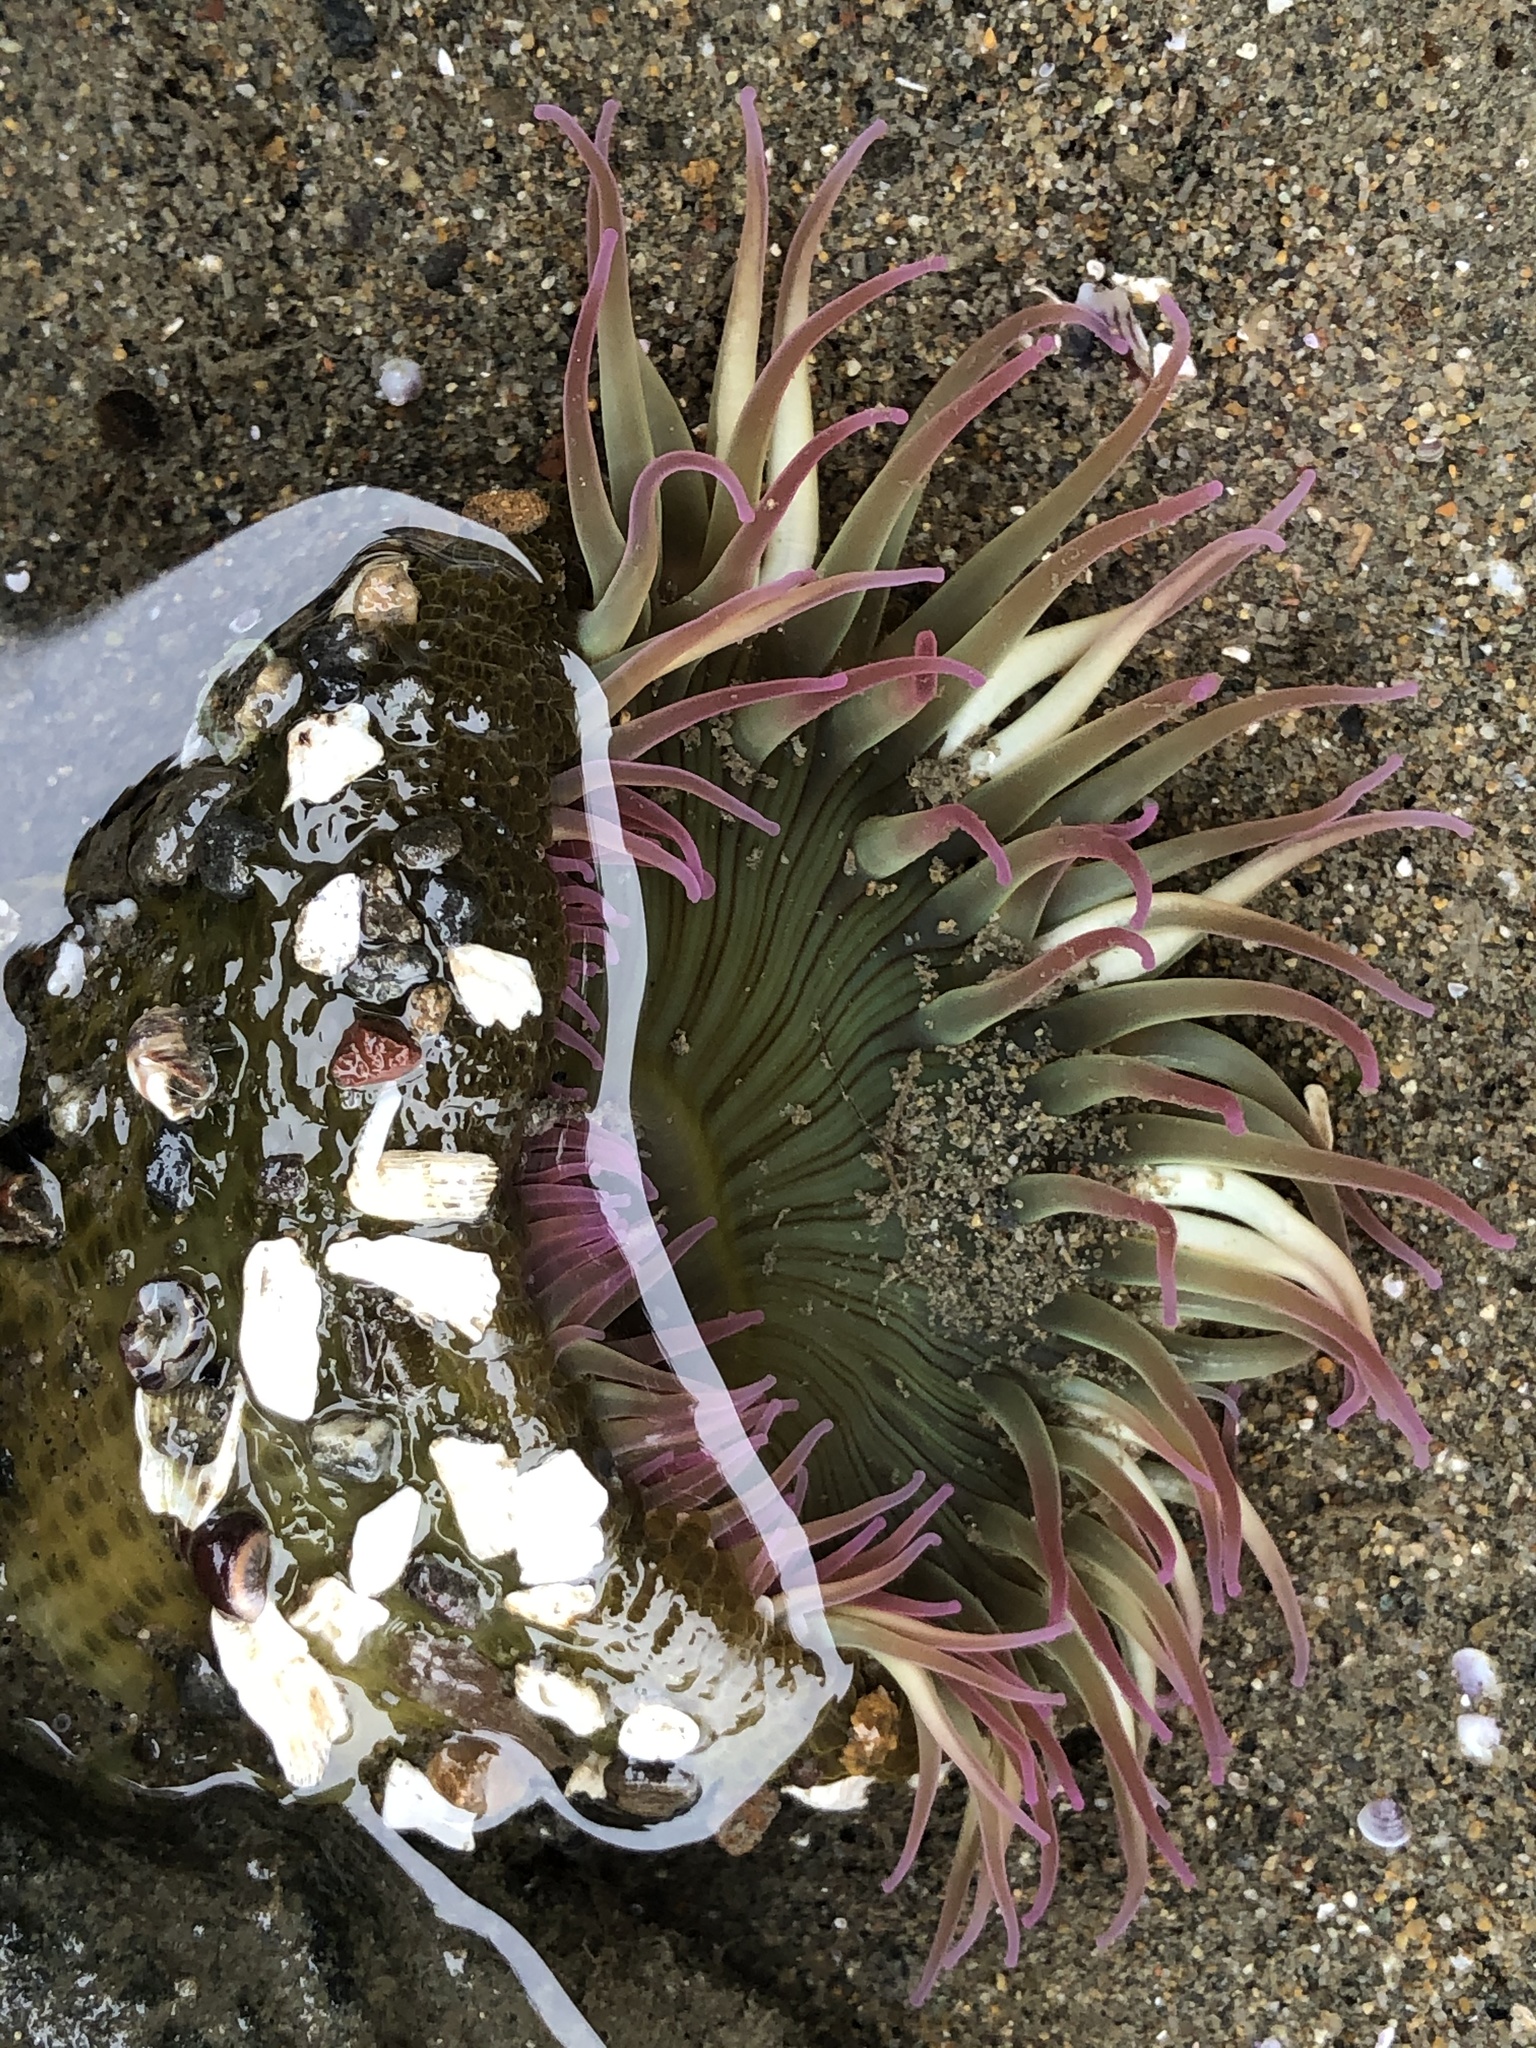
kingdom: Animalia
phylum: Cnidaria
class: Anthozoa
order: Actiniaria
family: Actiniidae
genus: Anthopleura
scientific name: Anthopleura elegantissima
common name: Clonal anemone
